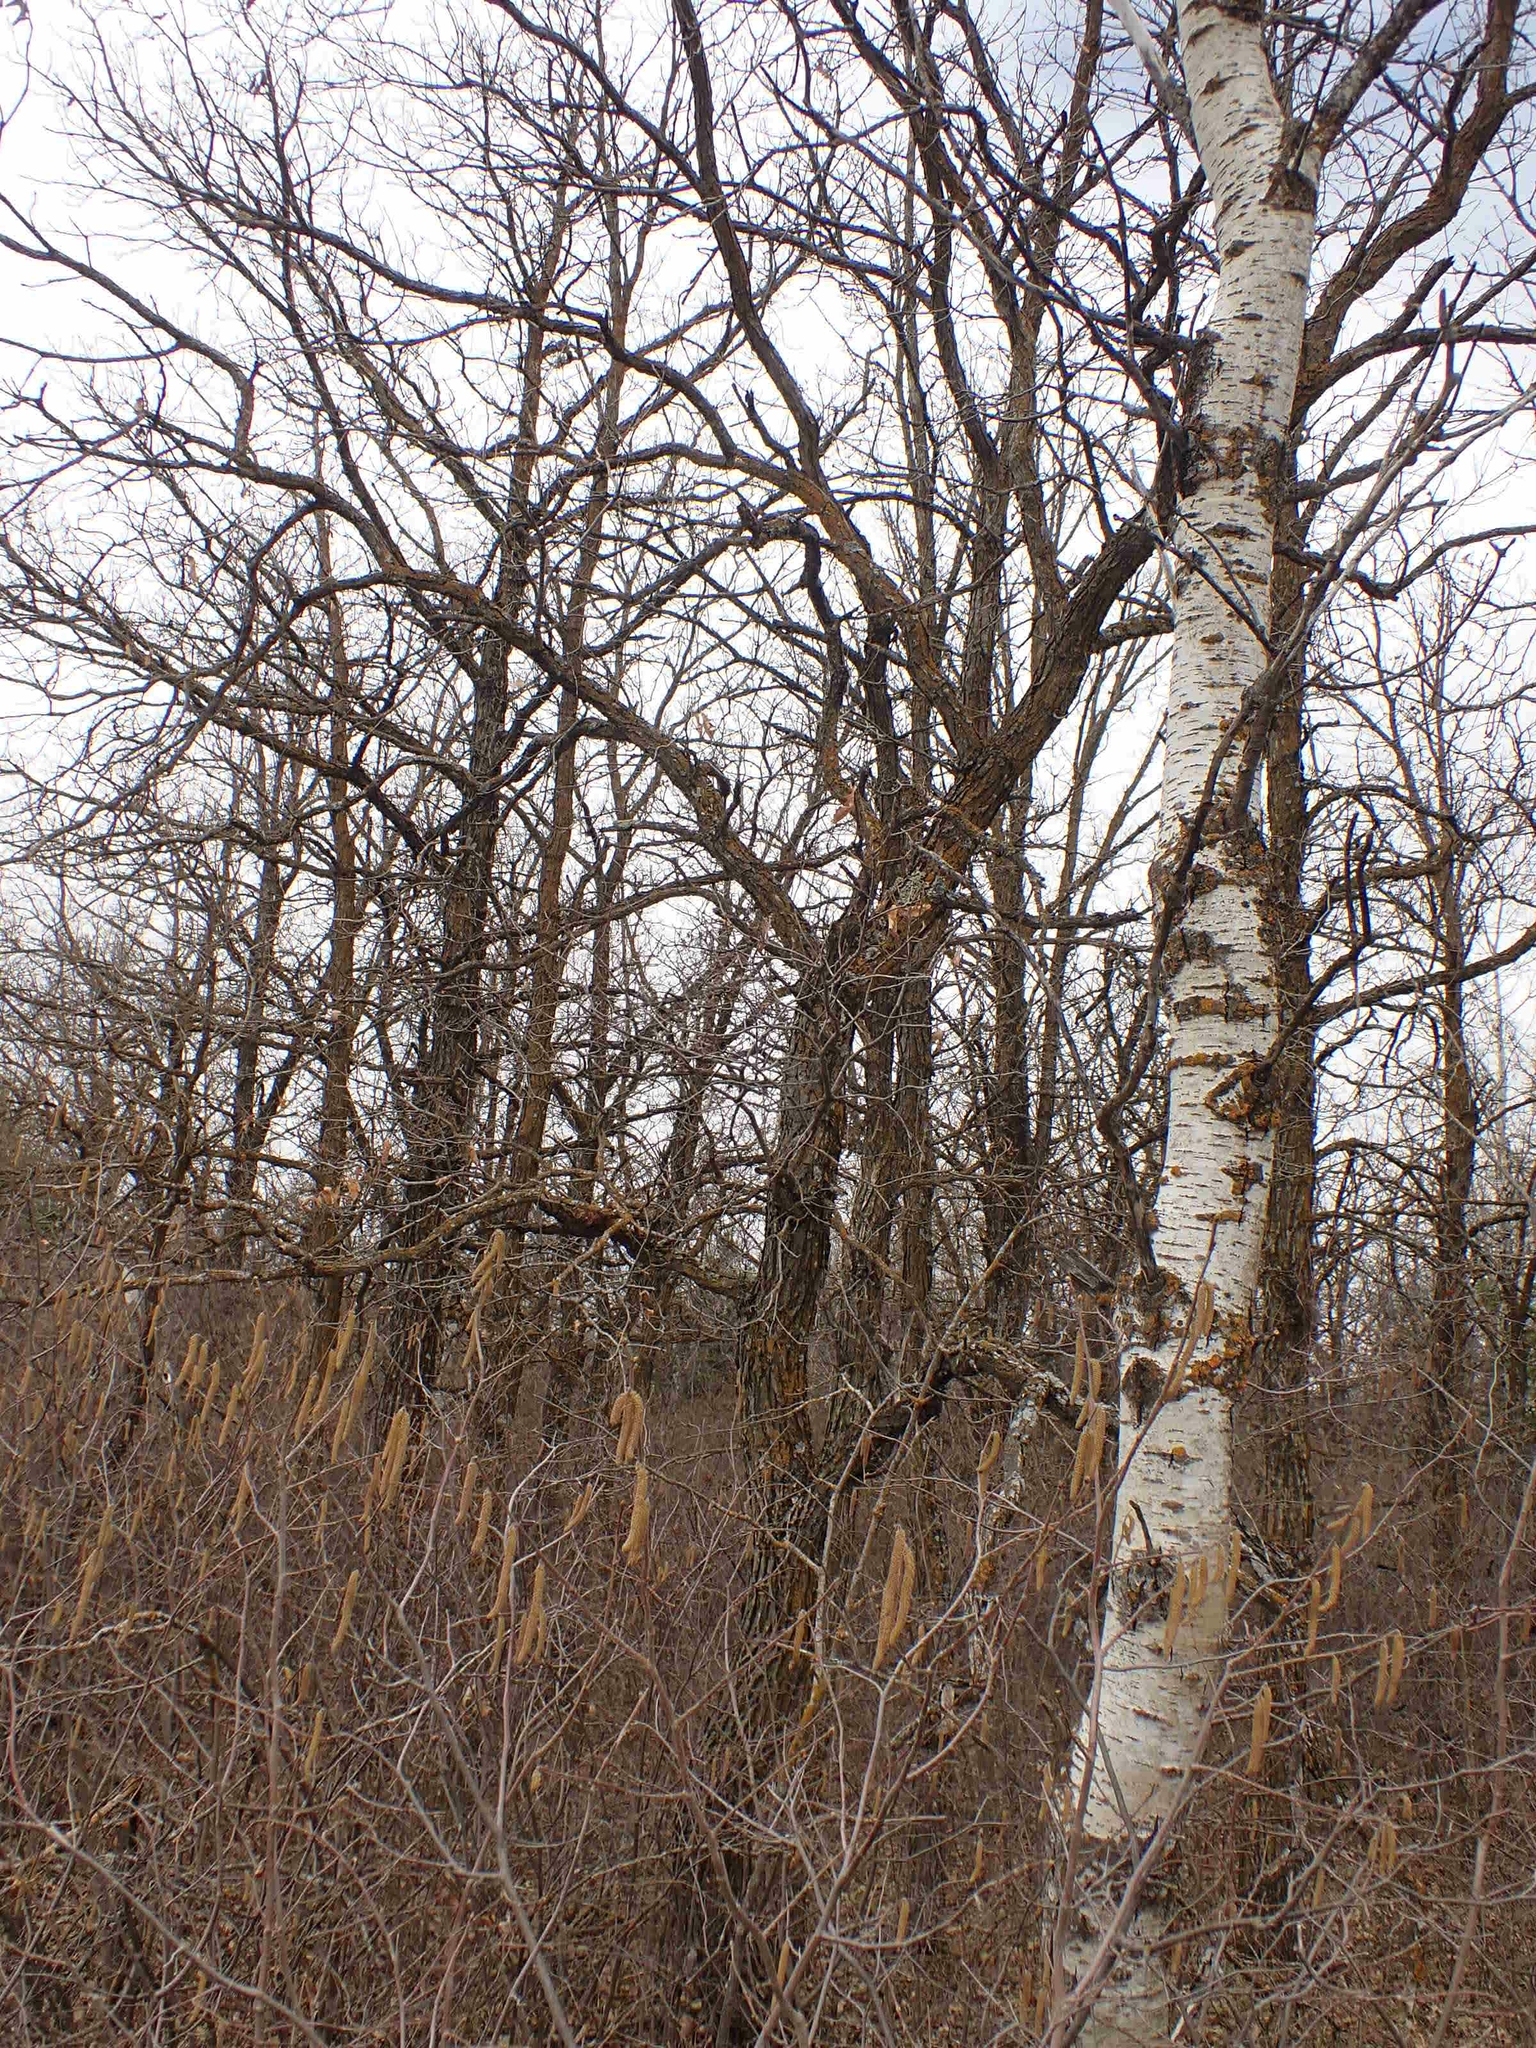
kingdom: Plantae
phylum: Tracheophyta
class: Magnoliopsida
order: Fagales
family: Fagaceae
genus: Quercus
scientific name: Quercus macrocarpa
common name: Bur oak
